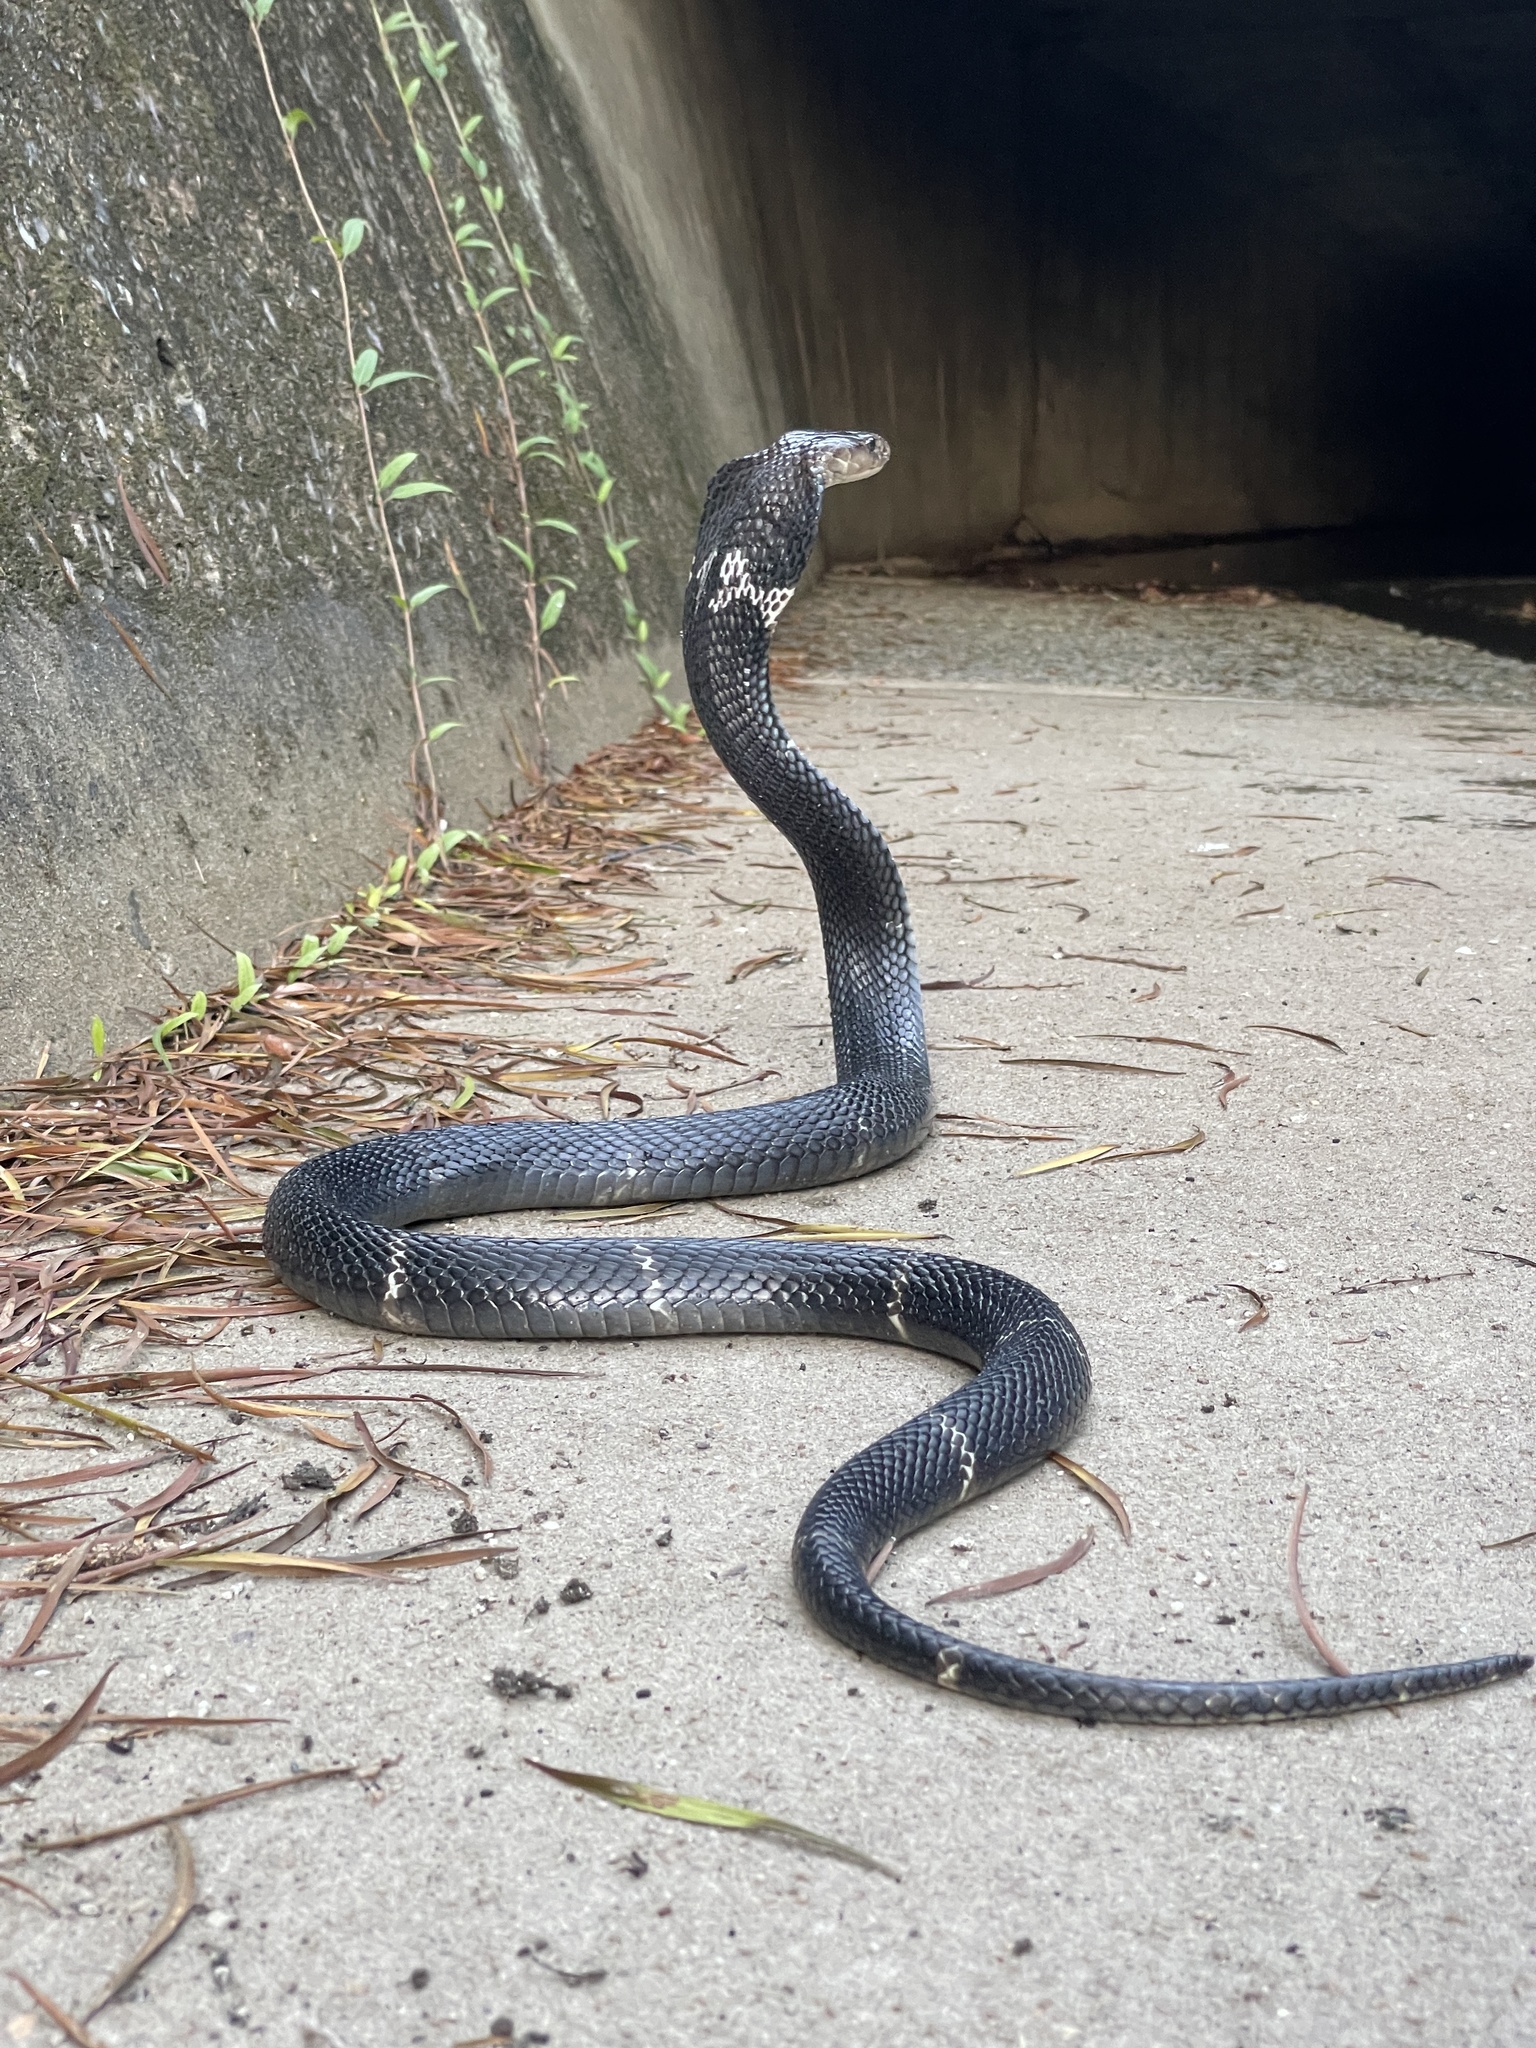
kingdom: Animalia
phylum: Chordata
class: Squamata
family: Elapidae
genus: Naja
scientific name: Naja atra
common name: Chinese cobra
